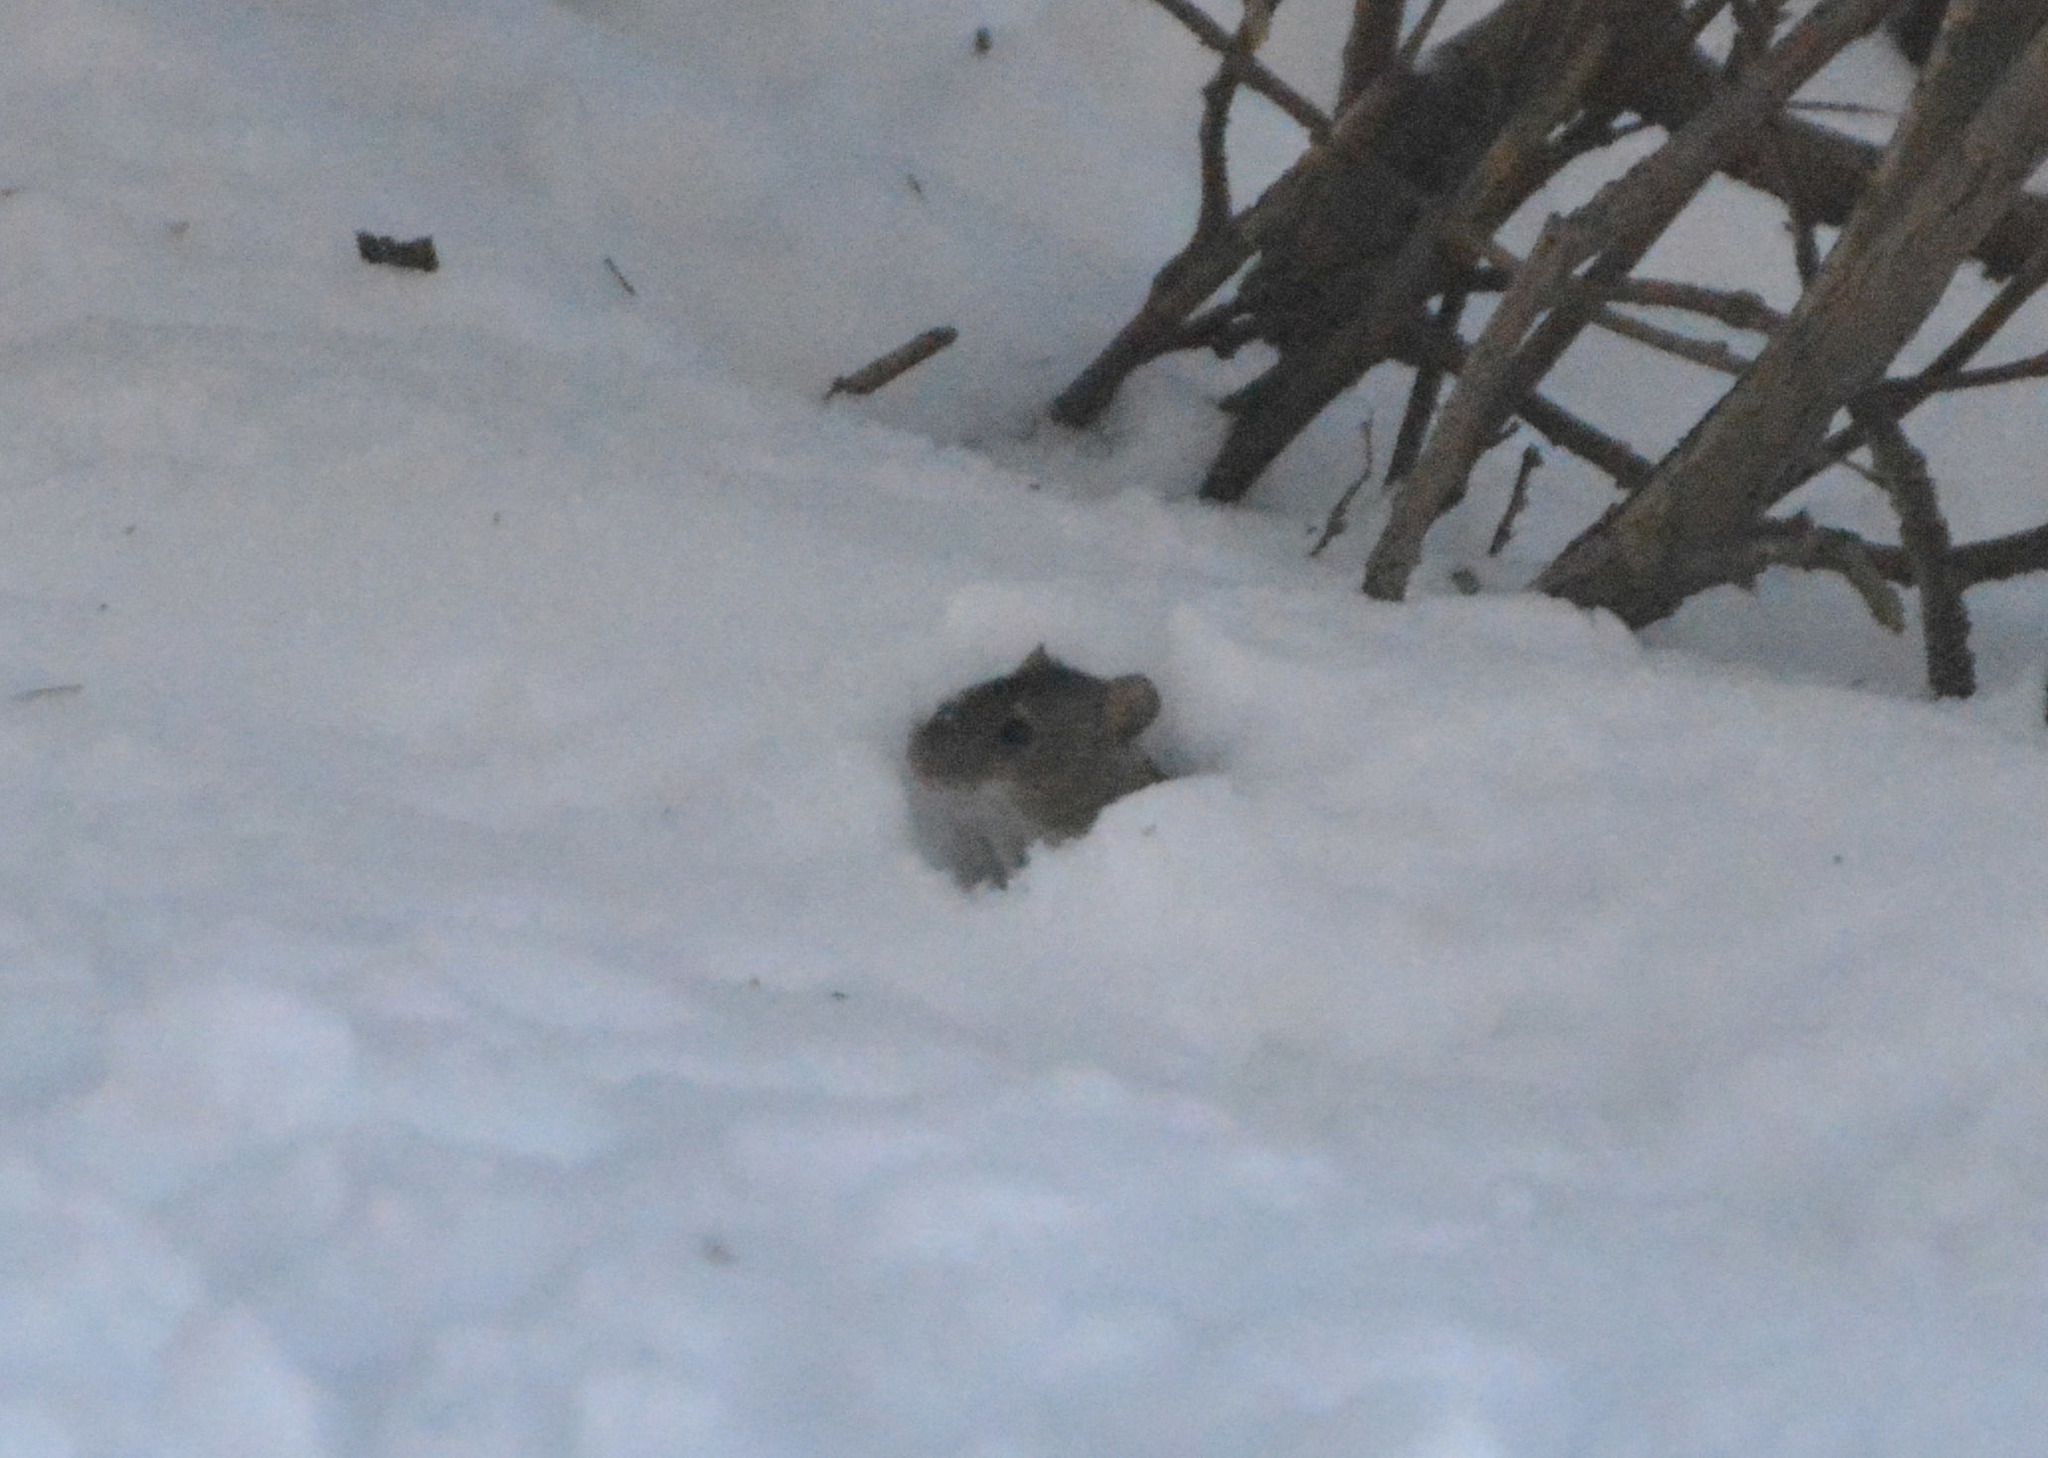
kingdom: Animalia
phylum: Chordata
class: Mammalia
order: Rodentia
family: Muridae
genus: Apodemus
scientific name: Apodemus agrarius
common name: Striped field mouse
